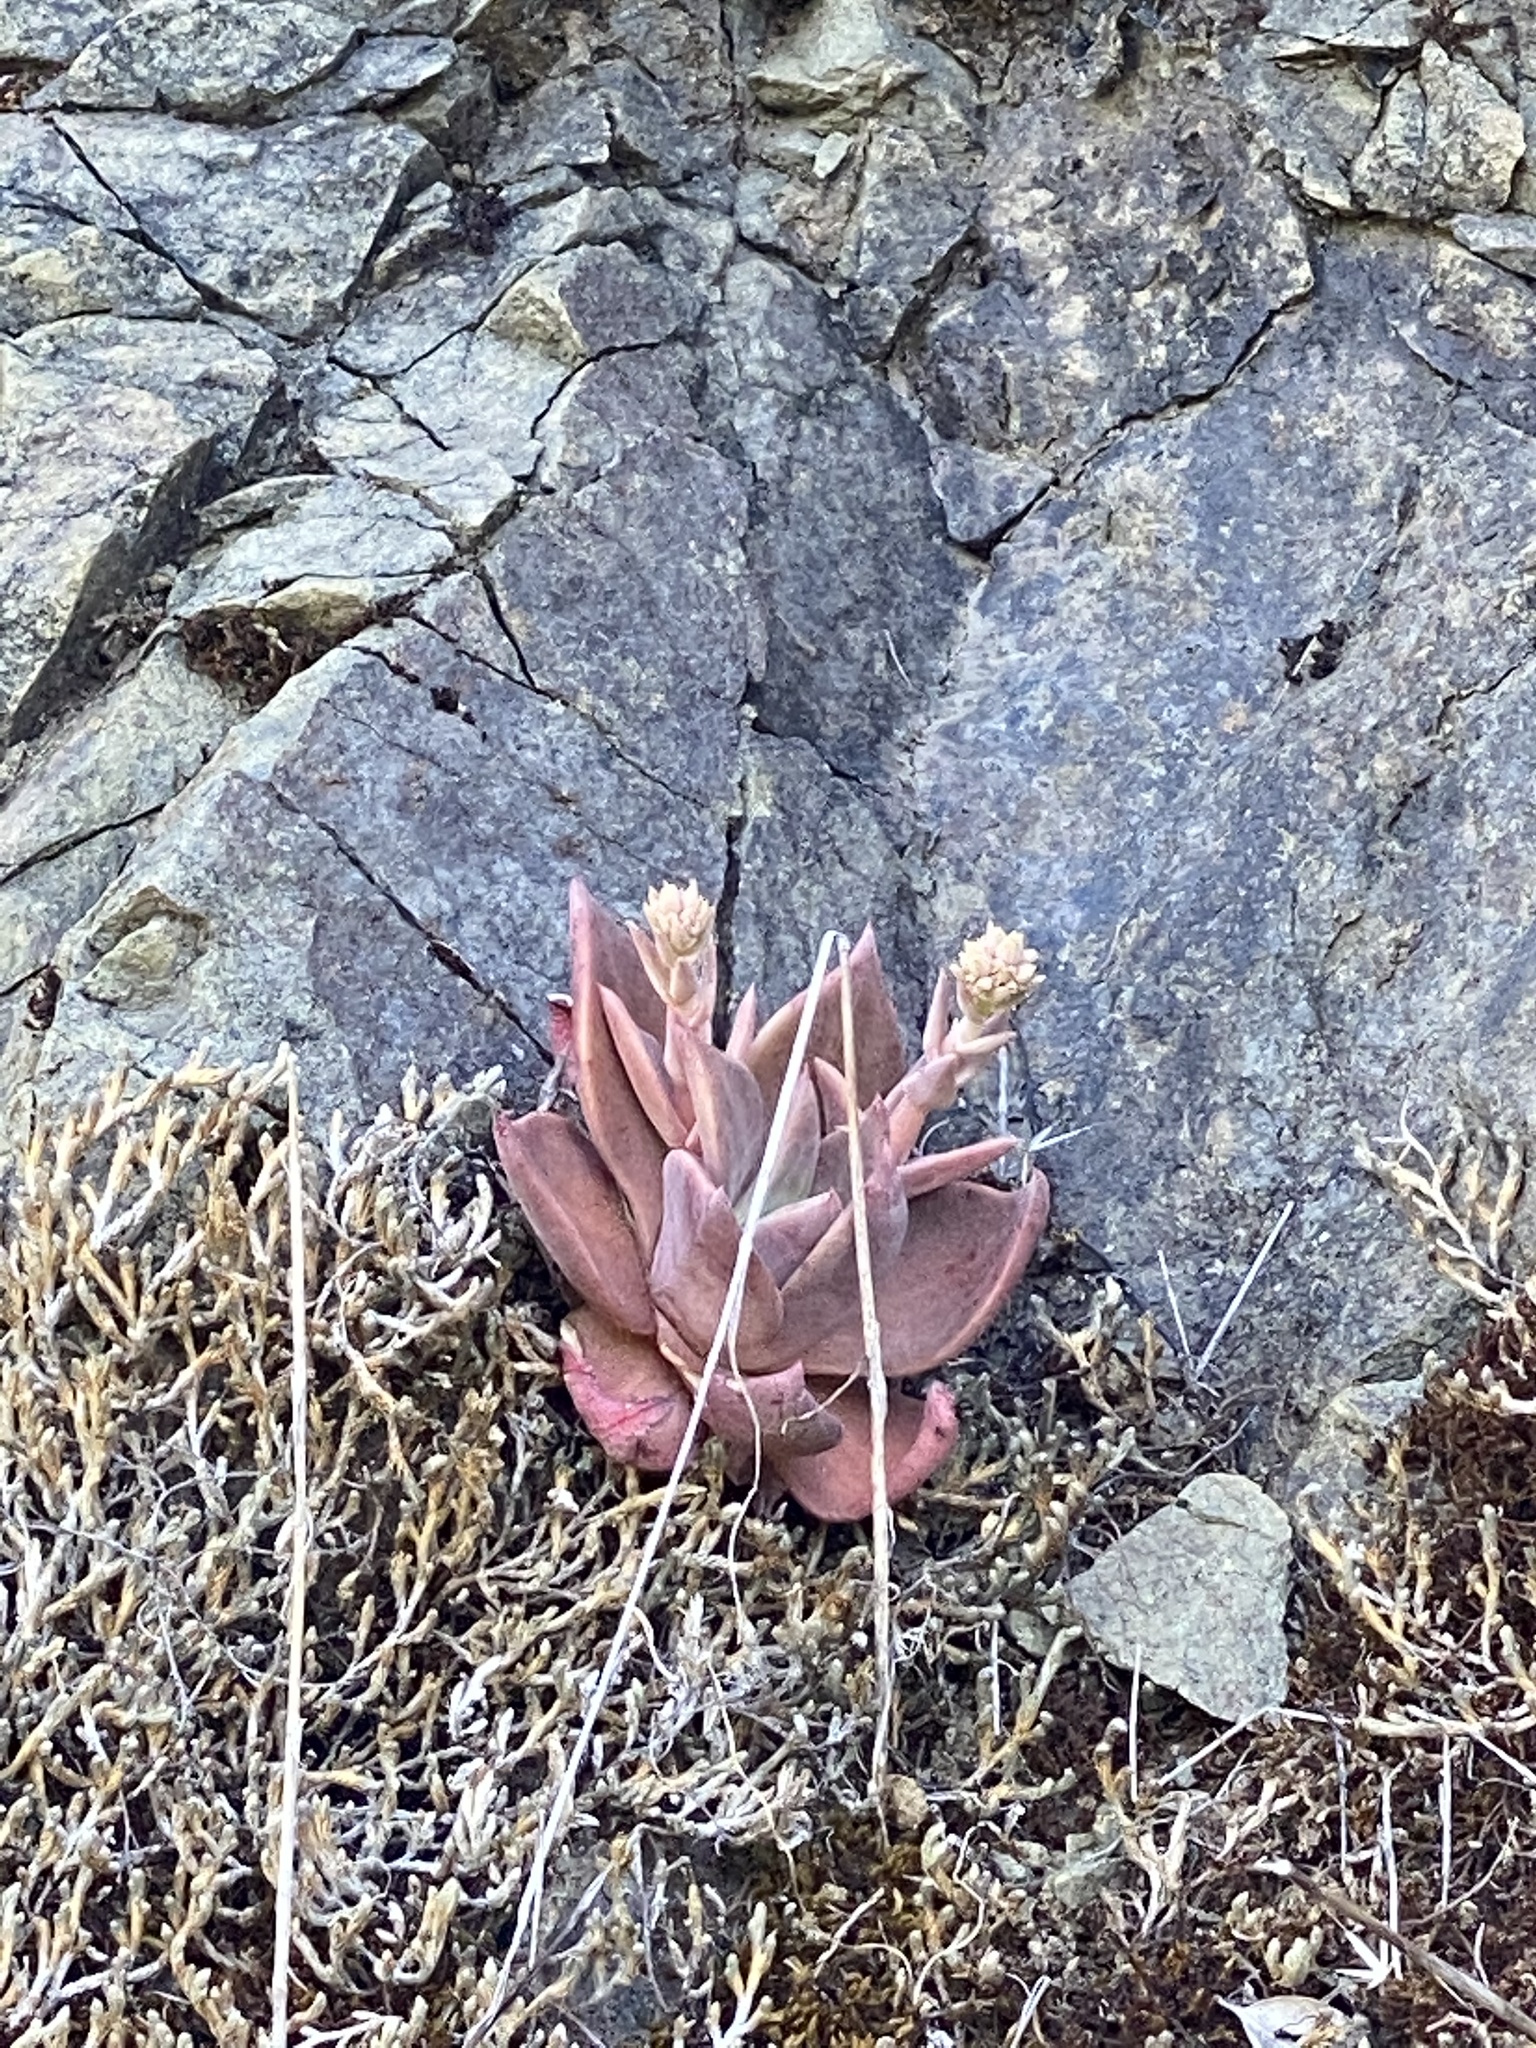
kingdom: Plantae
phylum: Tracheophyta
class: Magnoliopsida
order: Saxifragales
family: Crassulaceae
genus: Dudleya
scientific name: Dudleya cymosa
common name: Canyon dudleya
